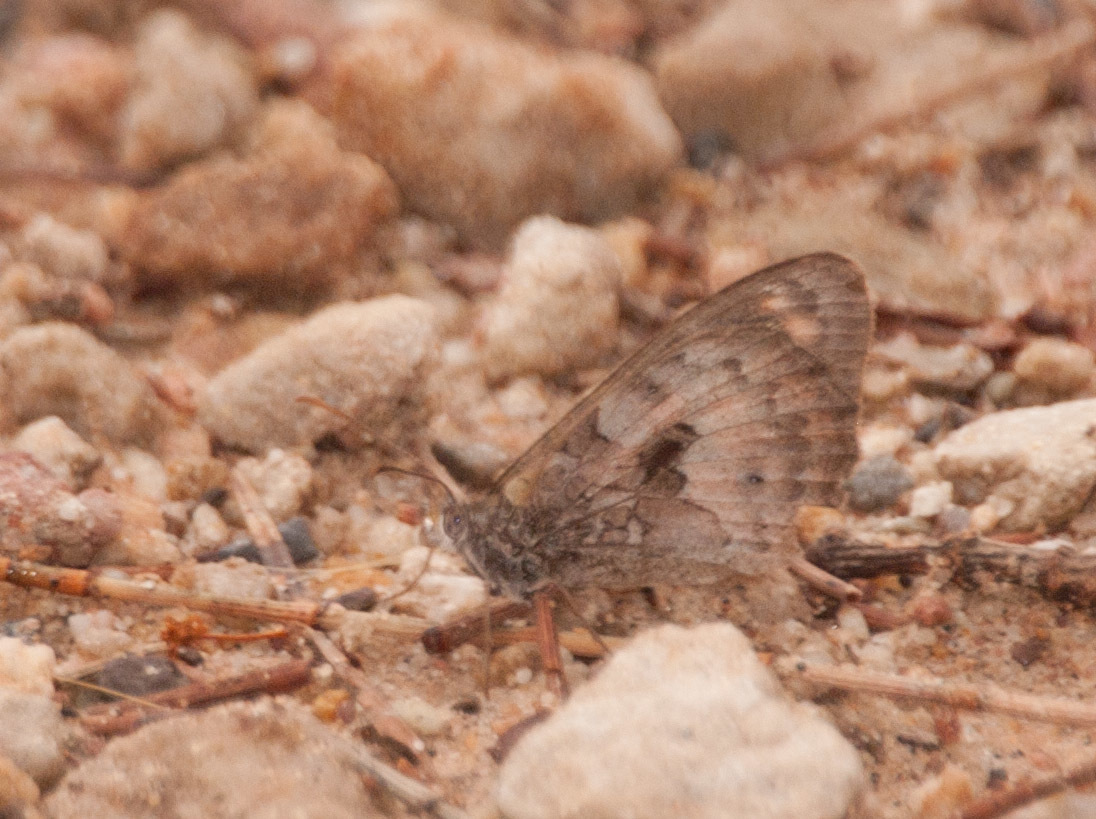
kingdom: Animalia
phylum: Arthropoda
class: Insecta
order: Lepidoptera
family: Nymphalidae
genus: Geitoneura
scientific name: Geitoneura klugii
